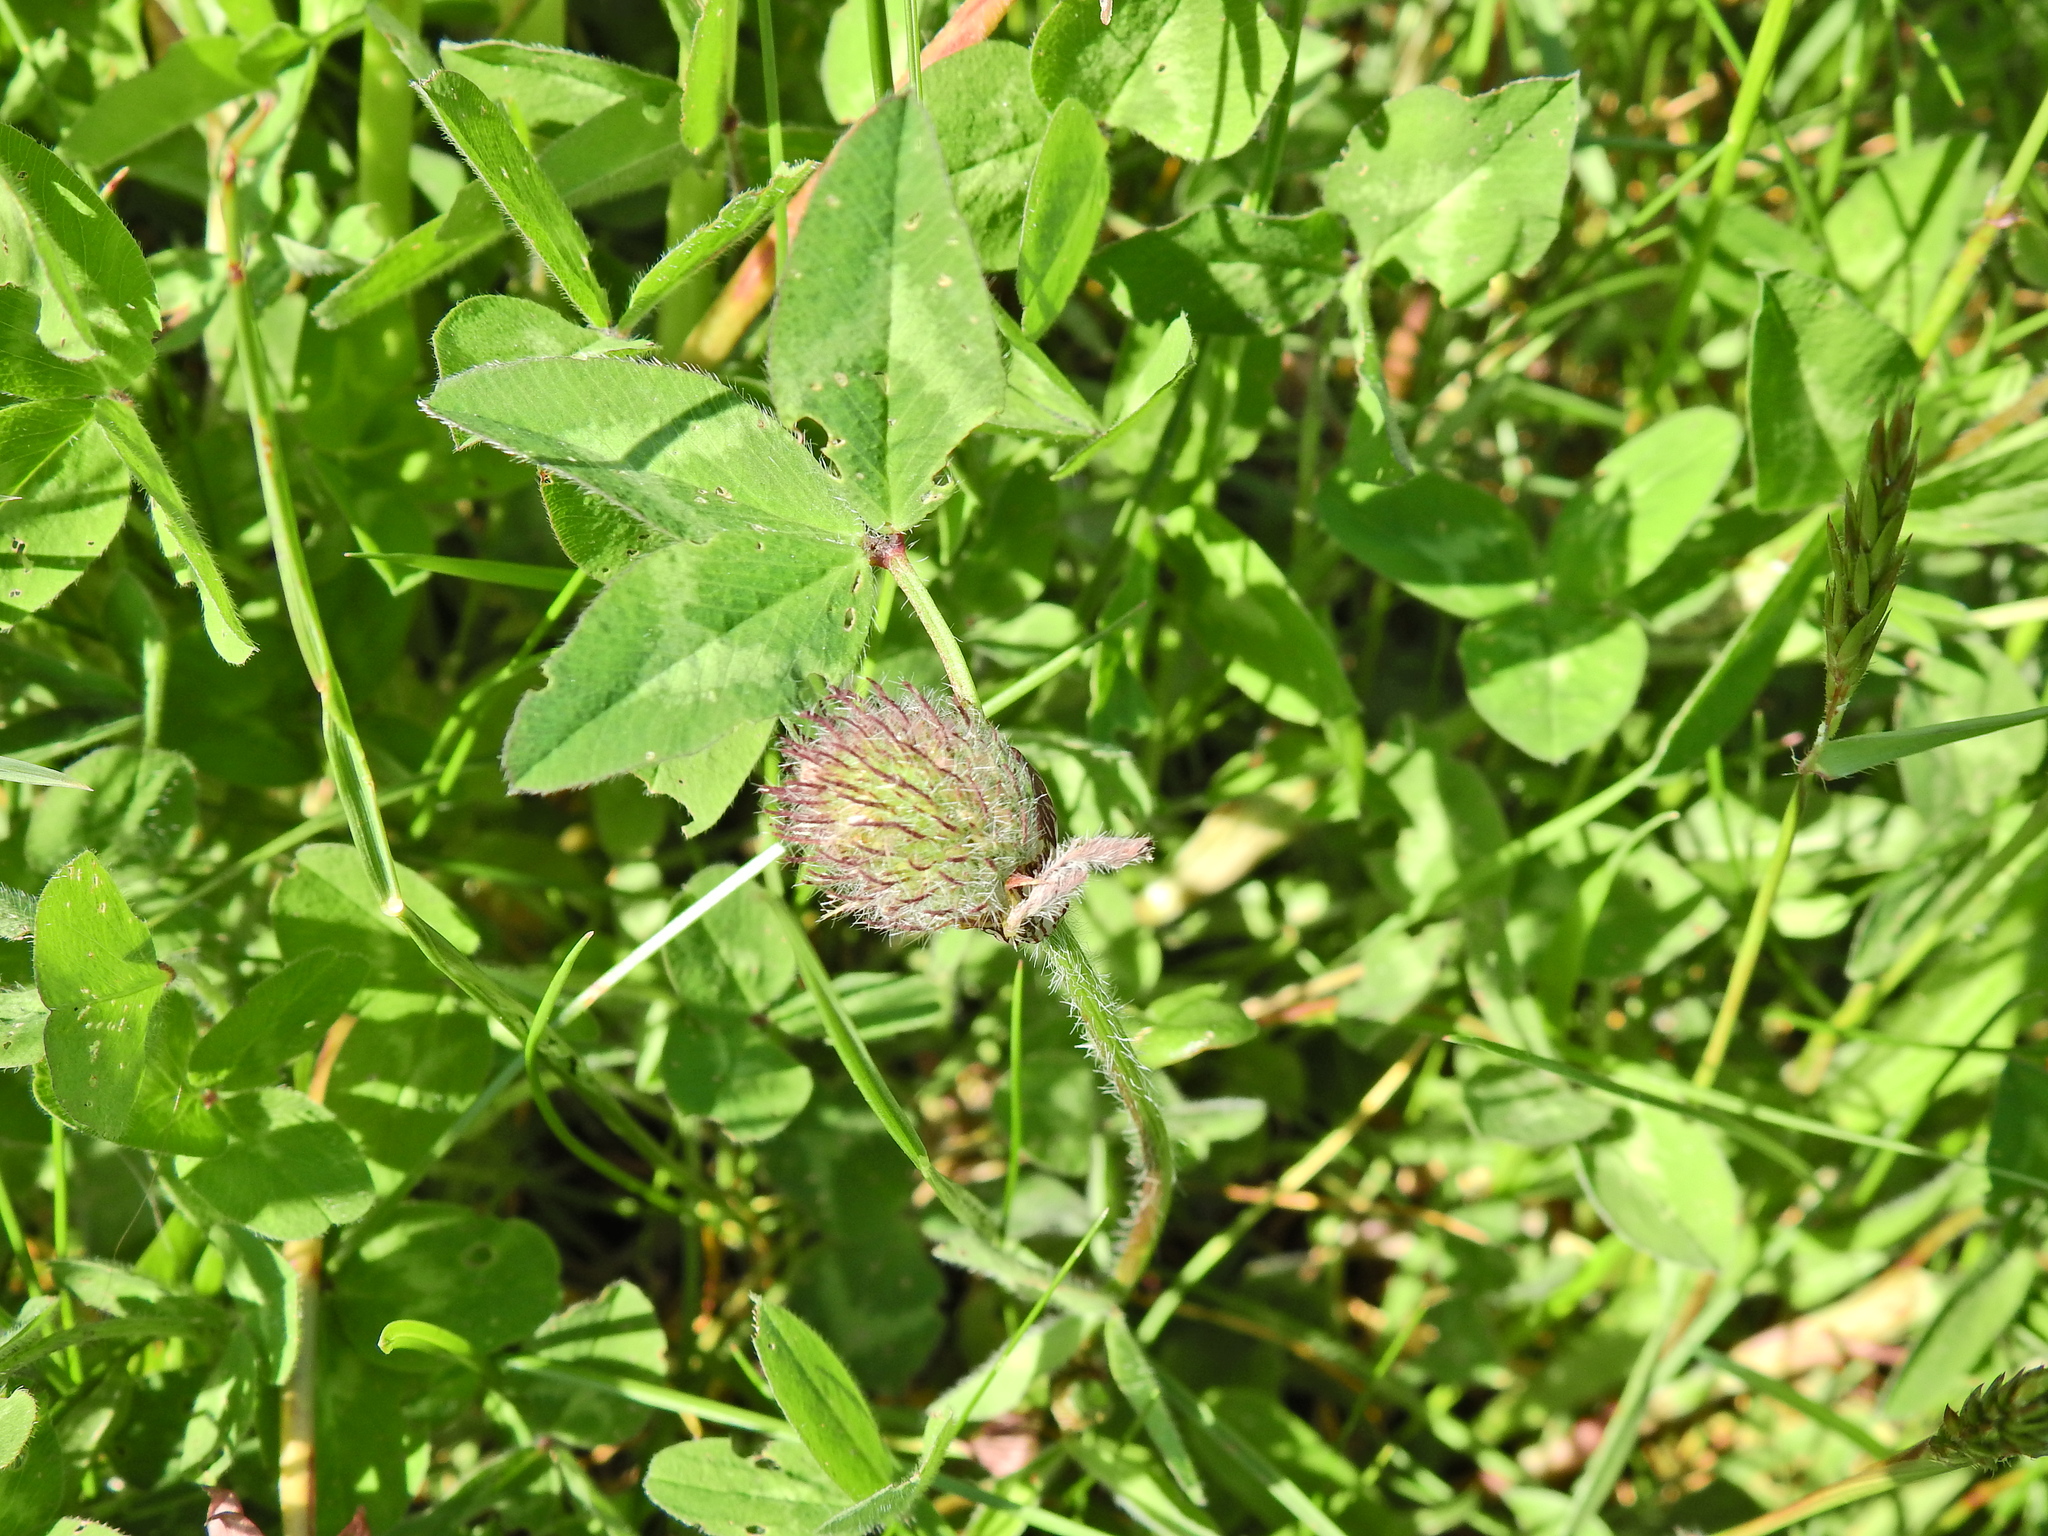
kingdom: Plantae
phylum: Tracheophyta
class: Magnoliopsida
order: Fabales
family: Fabaceae
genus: Trifolium
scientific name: Trifolium pratense
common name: Red clover
